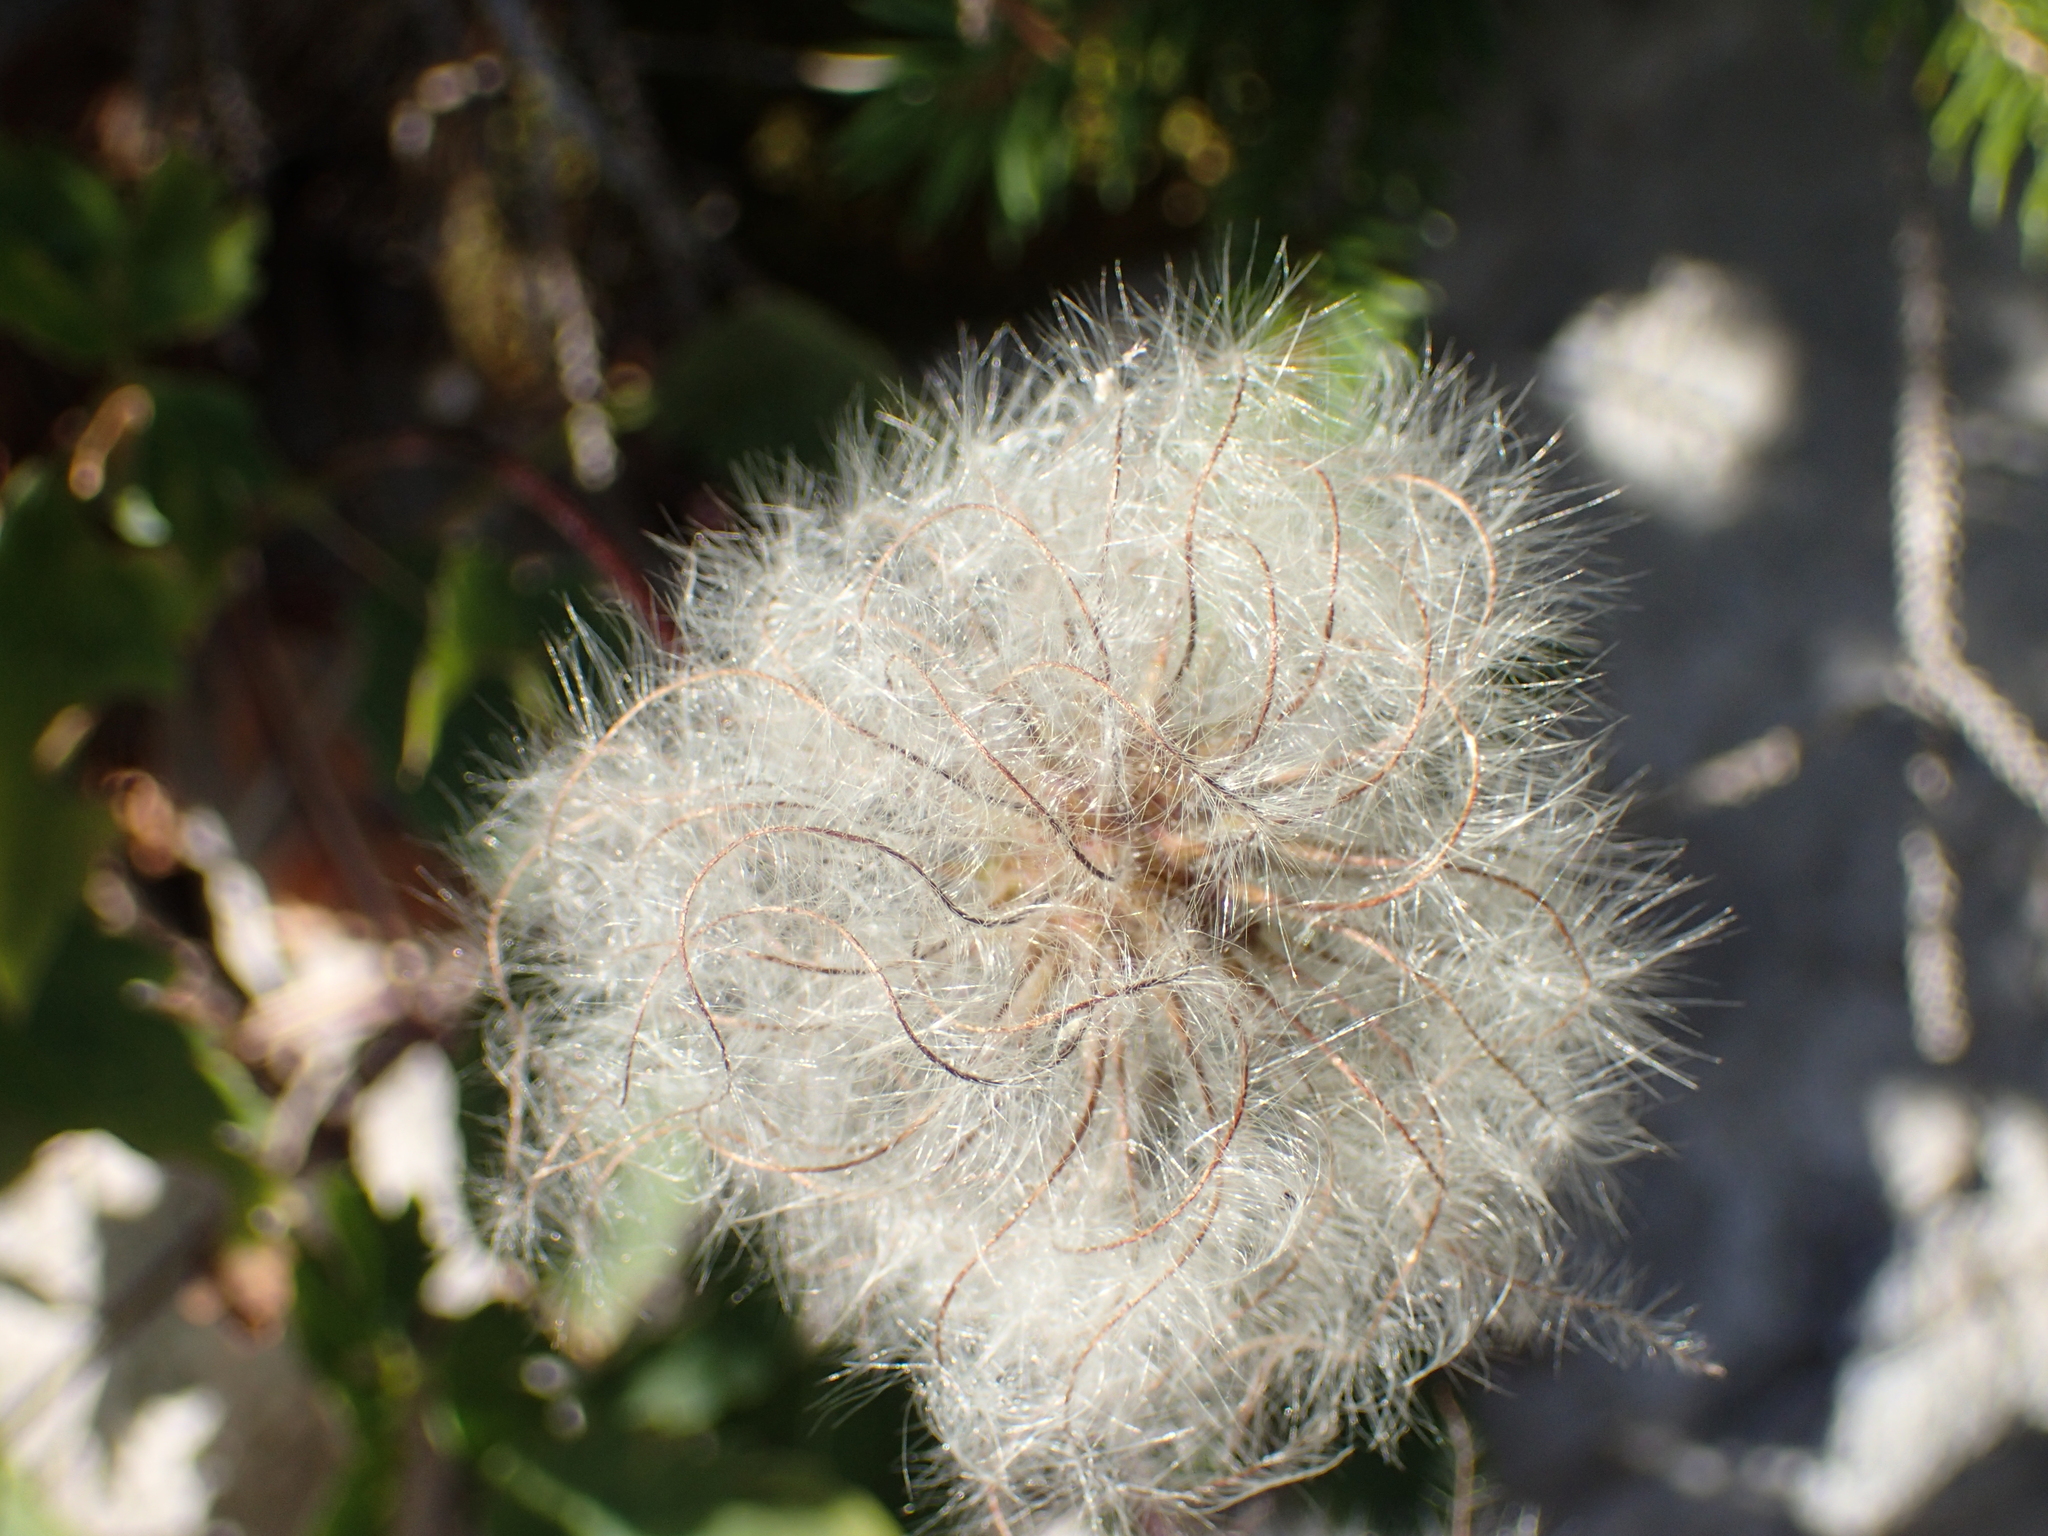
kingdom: Plantae
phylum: Tracheophyta
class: Magnoliopsida
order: Ranunculales
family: Ranunculaceae
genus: Clematis
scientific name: Clematis vitalba
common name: Evergreen clematis
